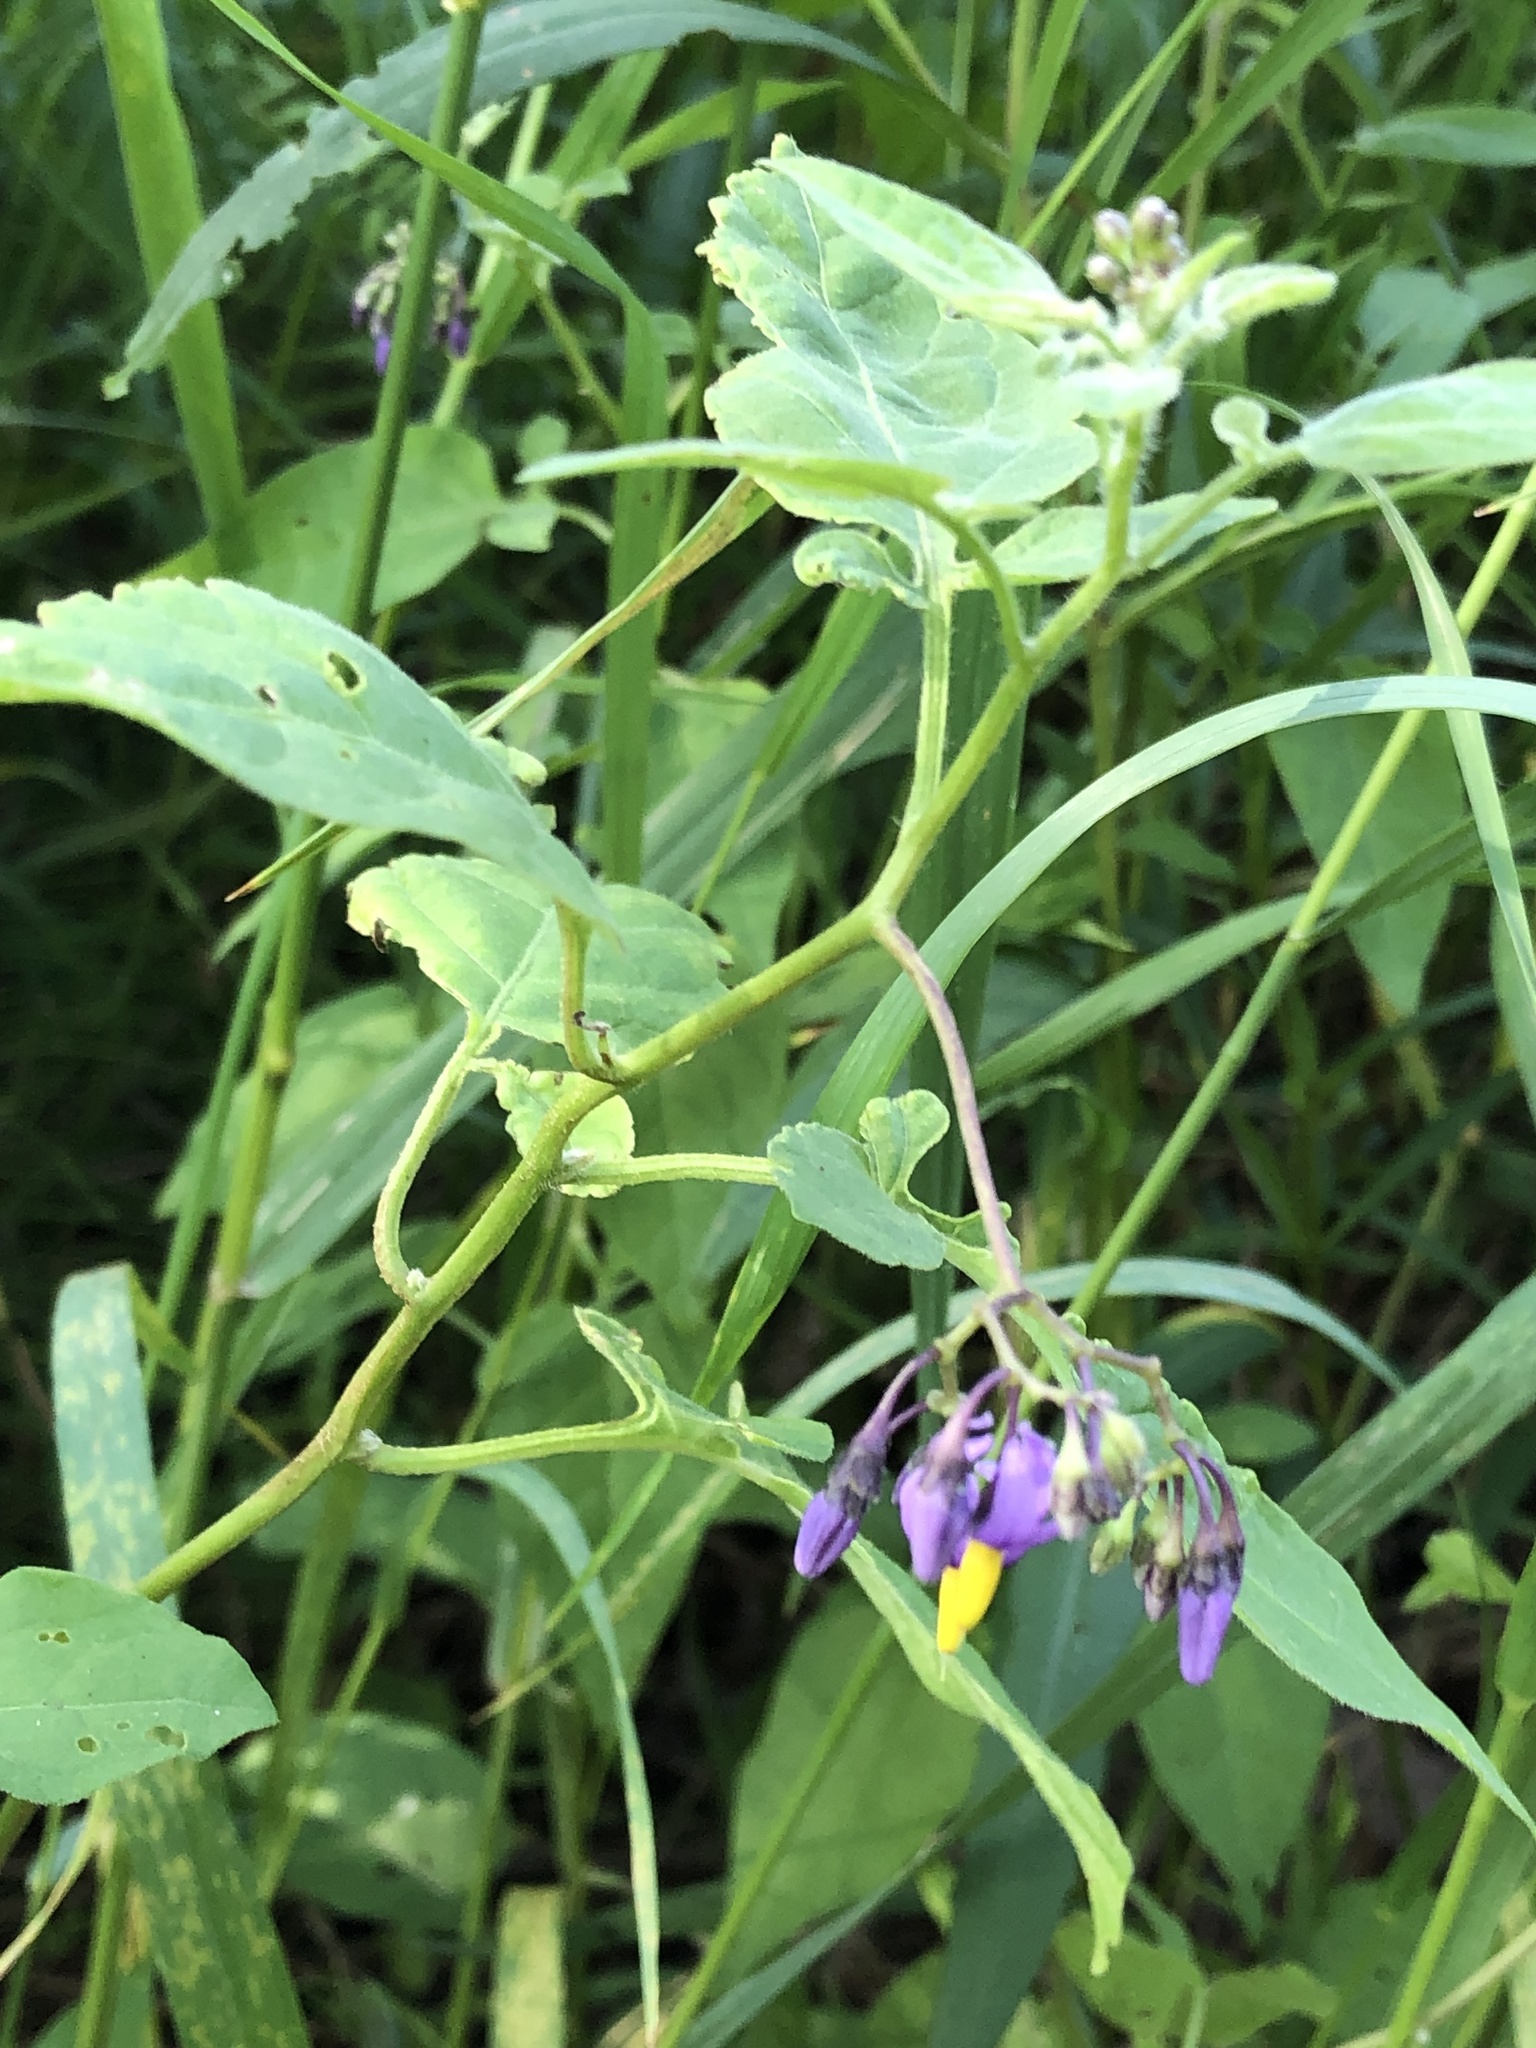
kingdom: Plantae
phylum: Tracheophyta
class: Magnoliopsida
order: Solanales
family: Solanaceae
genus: Solanum
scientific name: Solanum dulcamara
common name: Climbing nightshade
